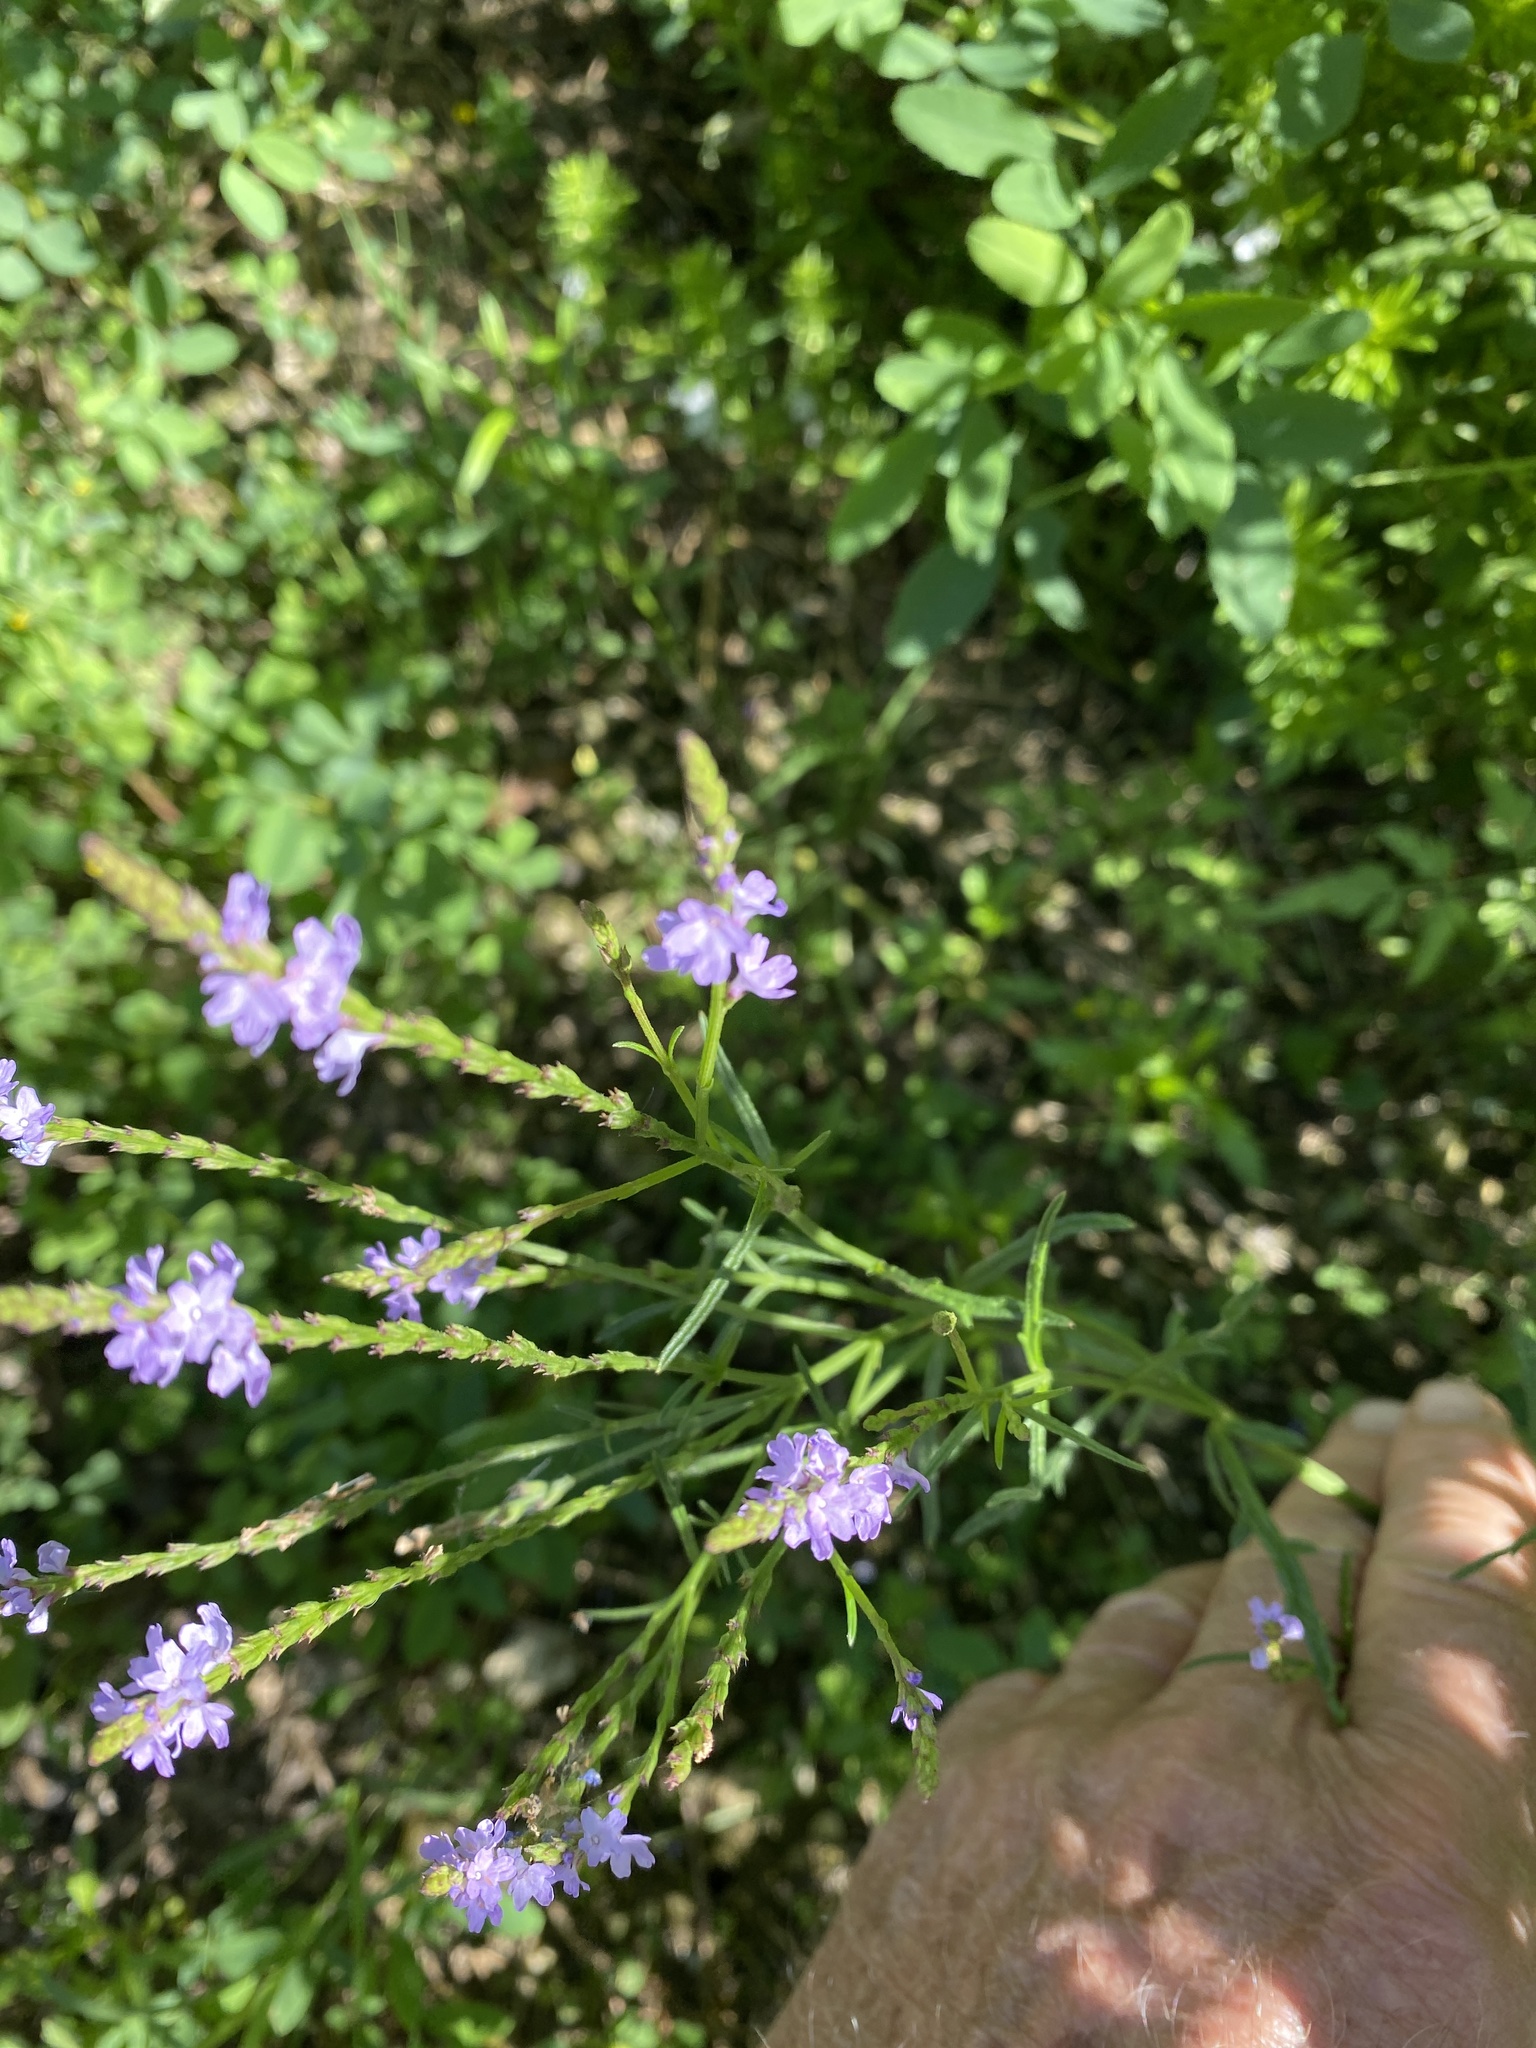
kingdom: Plantae
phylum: Tracheophyta
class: Magnoliopsida
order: Lamiales
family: Verbenaceae
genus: Verbena
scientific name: Verbena halei
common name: Texas vervain
